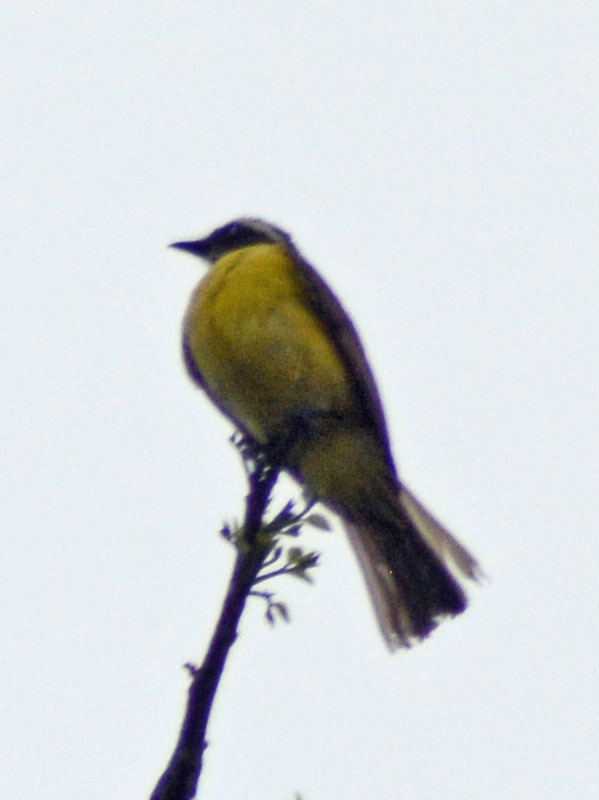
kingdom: Animalia
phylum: Chordata
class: Aves
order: Passeriformes
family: Tyrannidae
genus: Myiozetetes
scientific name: Myiozetetes similis
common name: Social flycatcher
